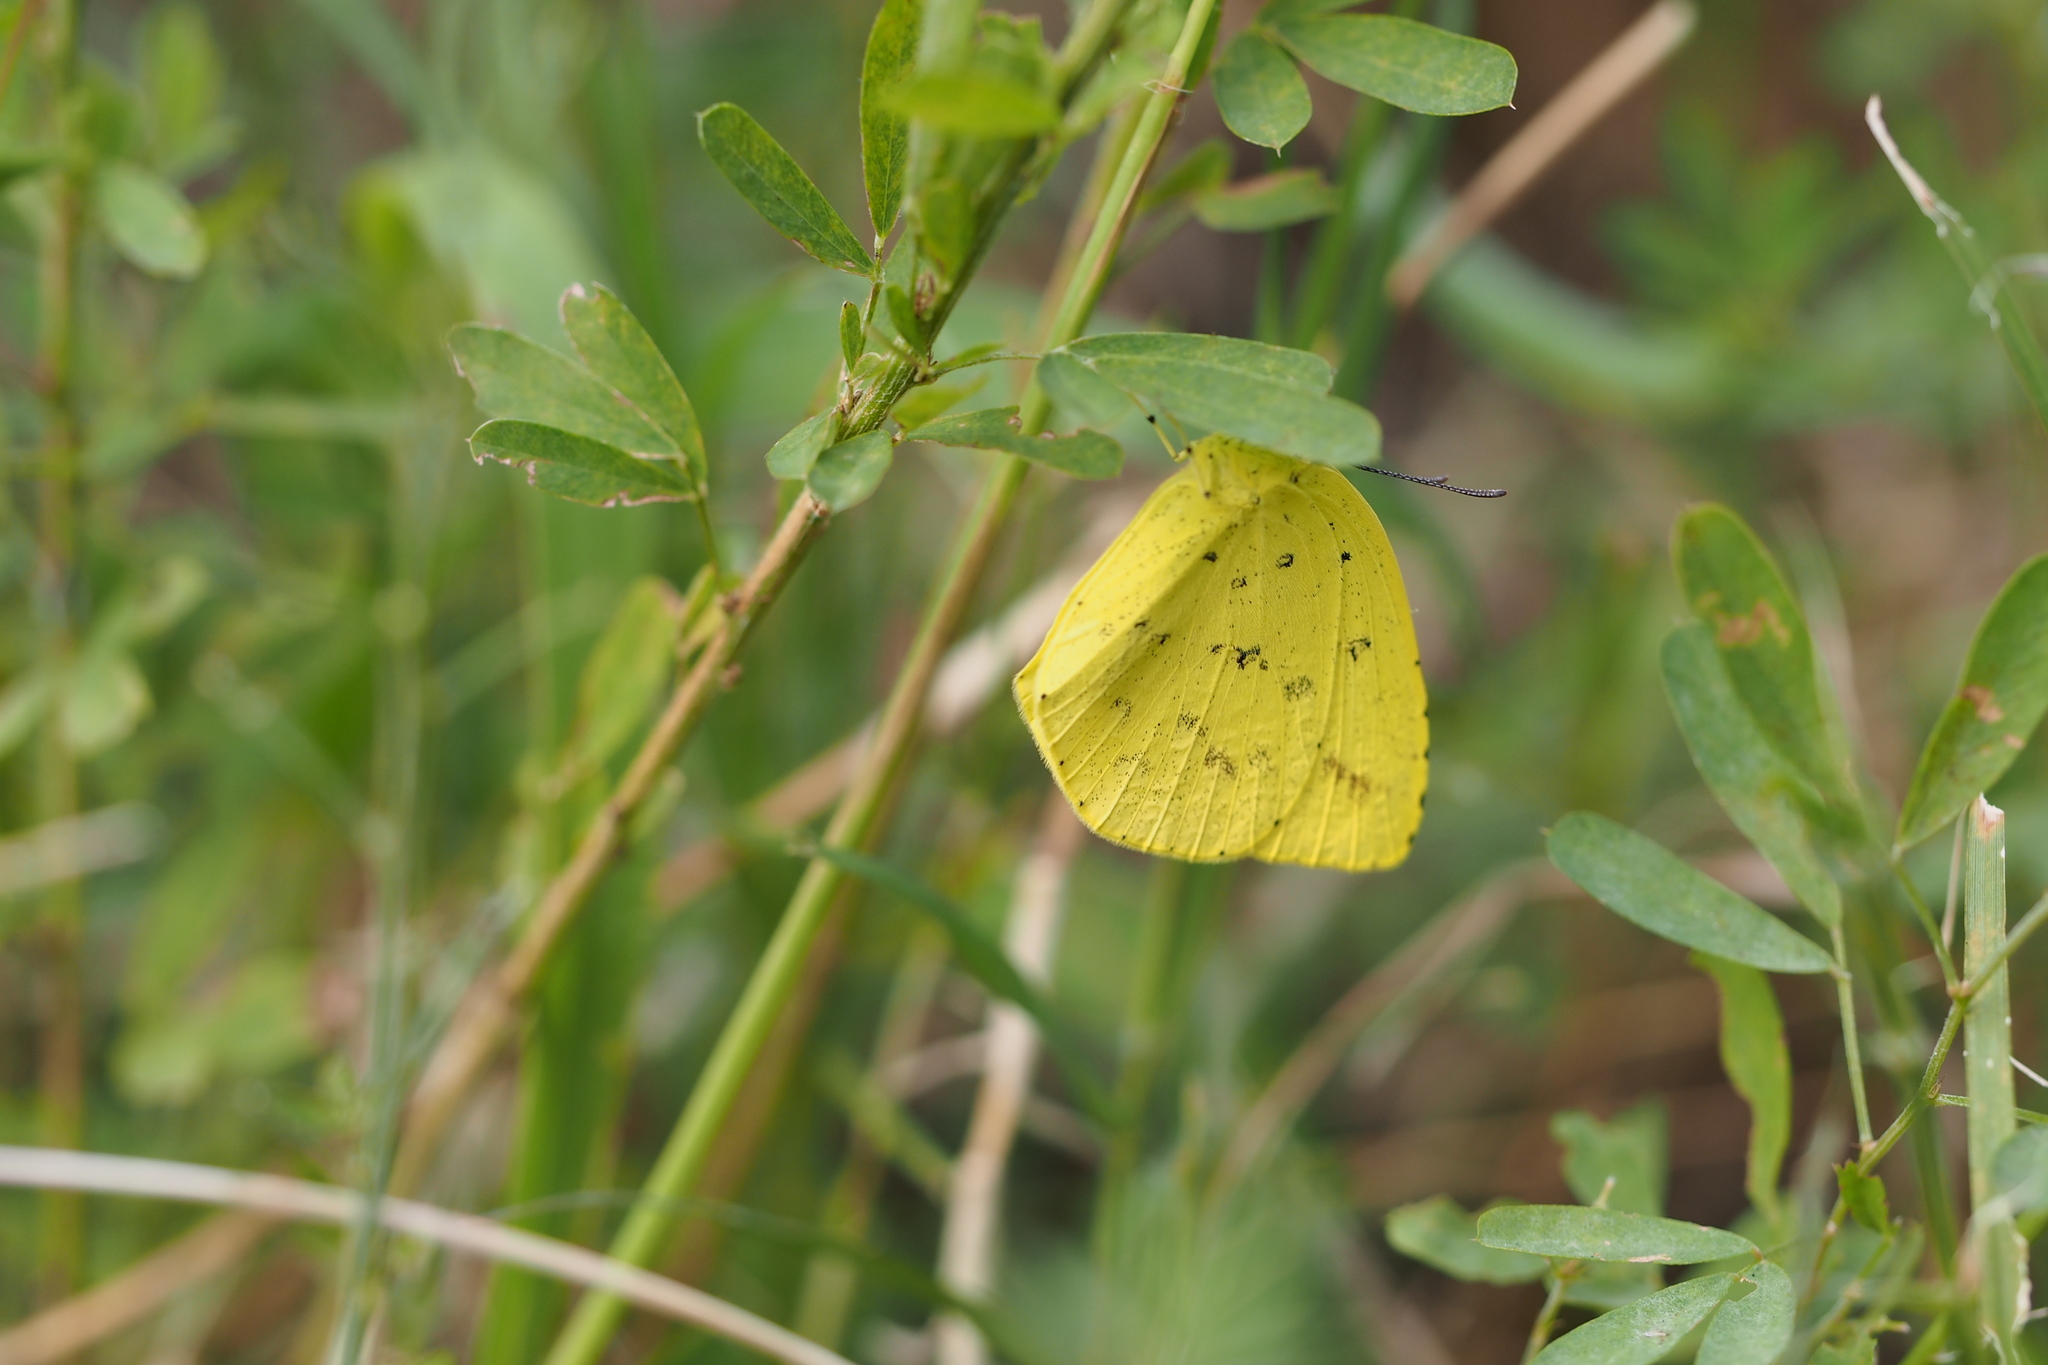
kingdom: Animalia
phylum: Arthropoda
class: Insecta
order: Lepidoptera
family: Pieridae
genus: Eurema
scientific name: Eurema mandarina
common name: Japanese common grass yellow
